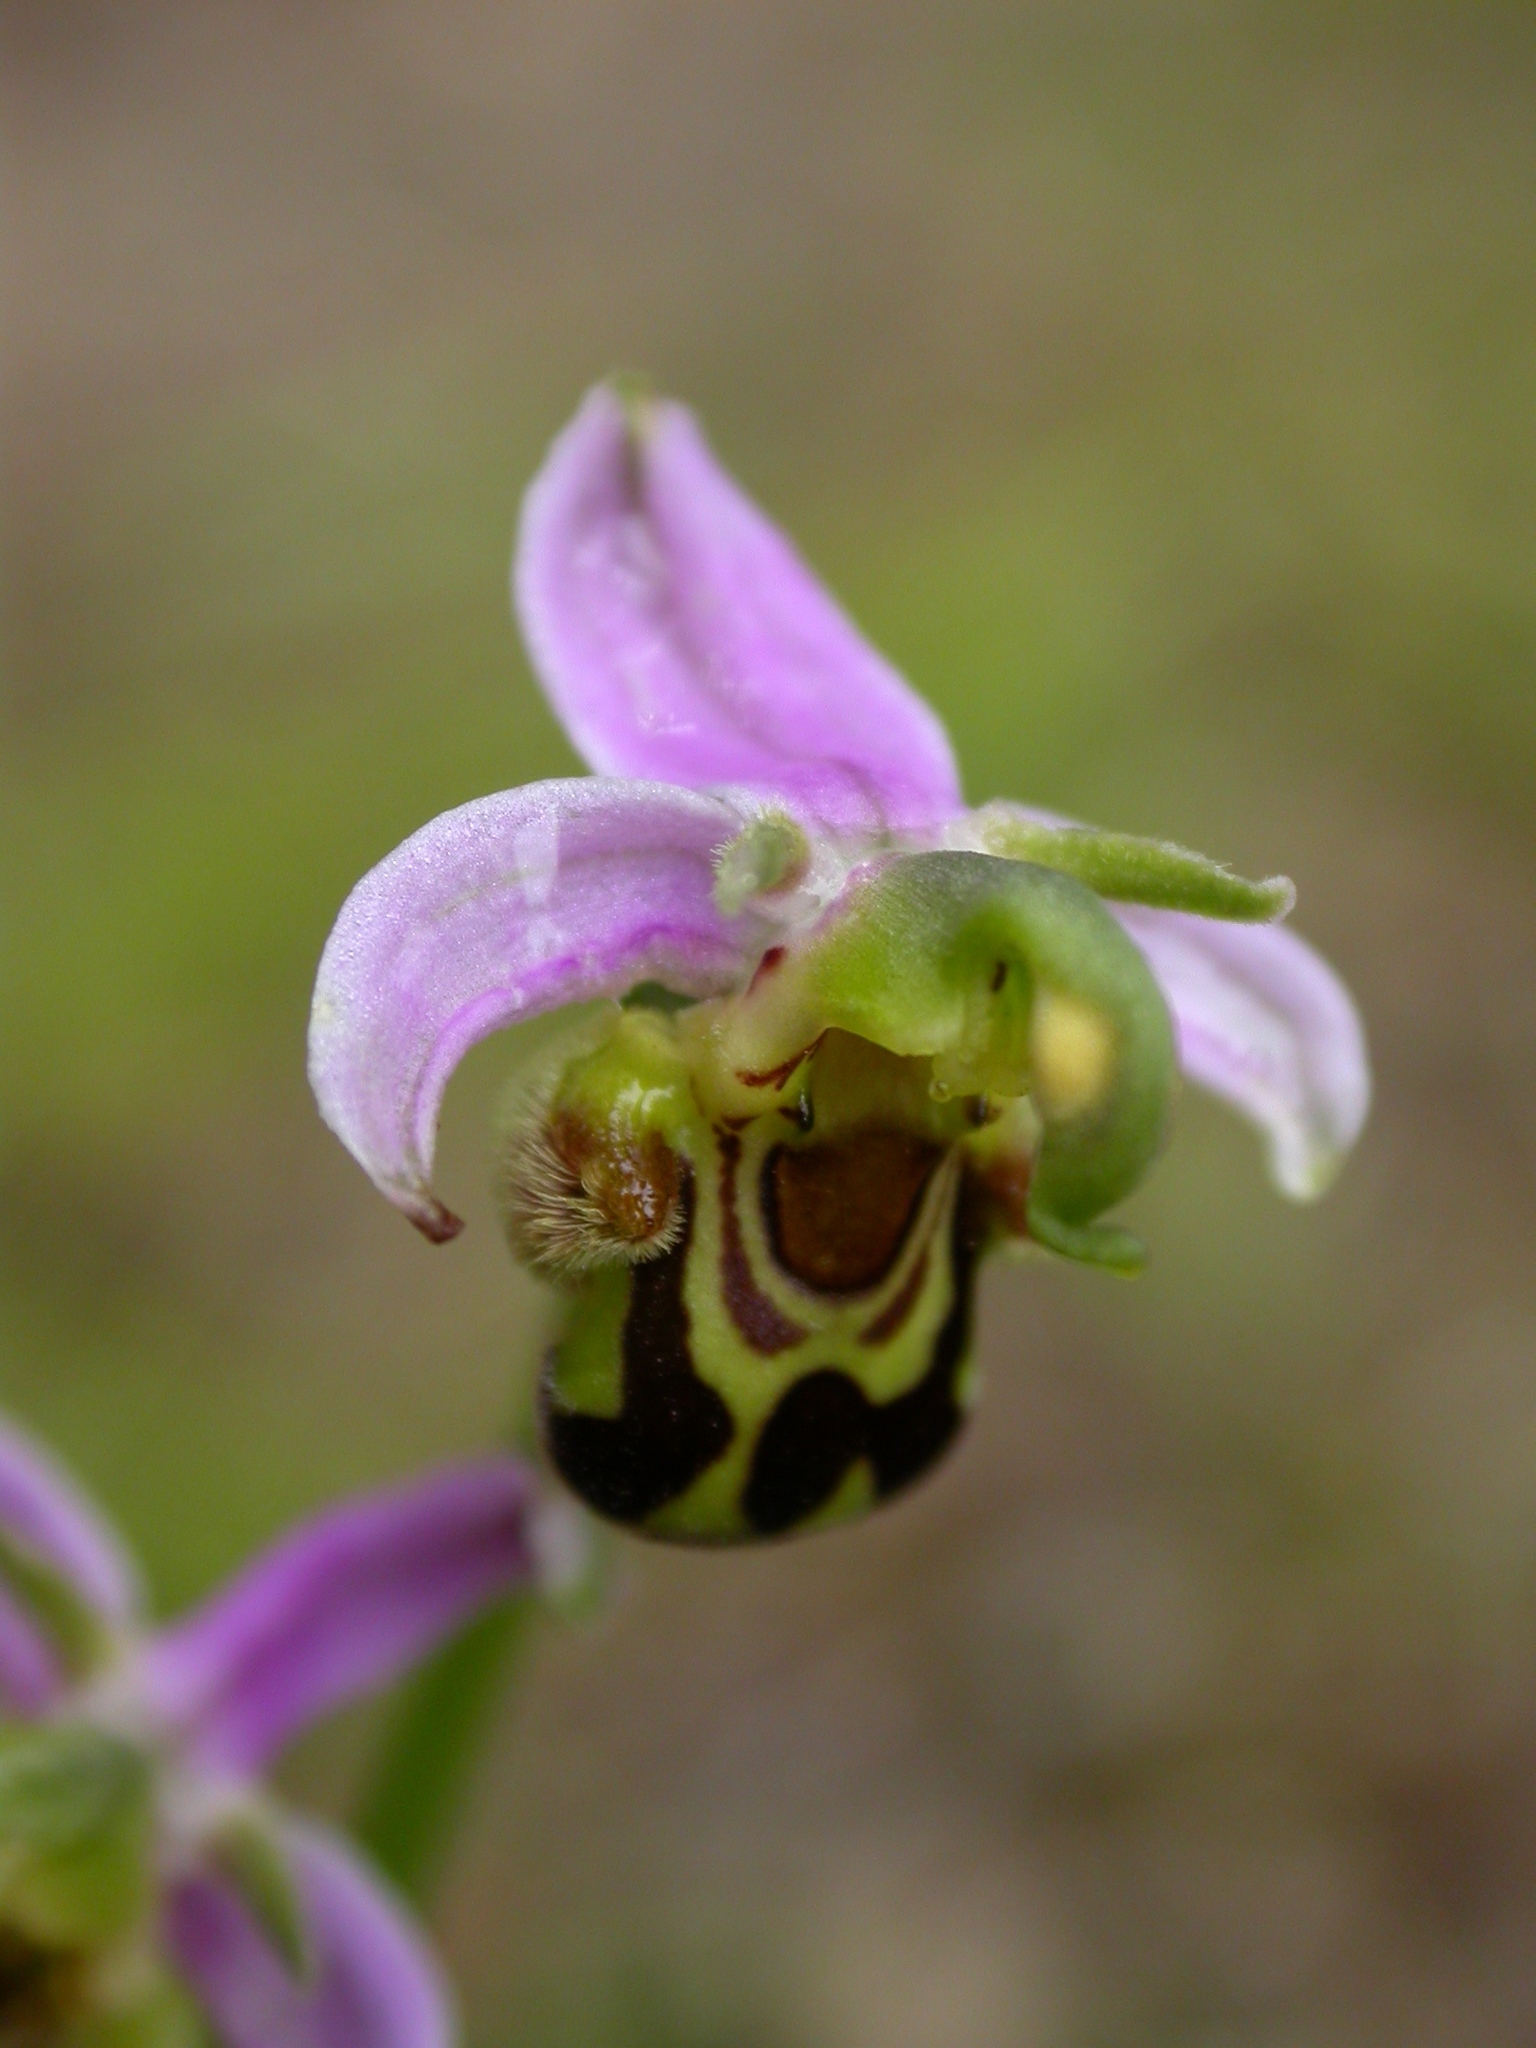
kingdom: Plantae
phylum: Tracheophyta
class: Liliopsida
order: Asparagales
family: Orchidaceae
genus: Ophrys
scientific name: Ophrys apifera
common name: Bee orchid
